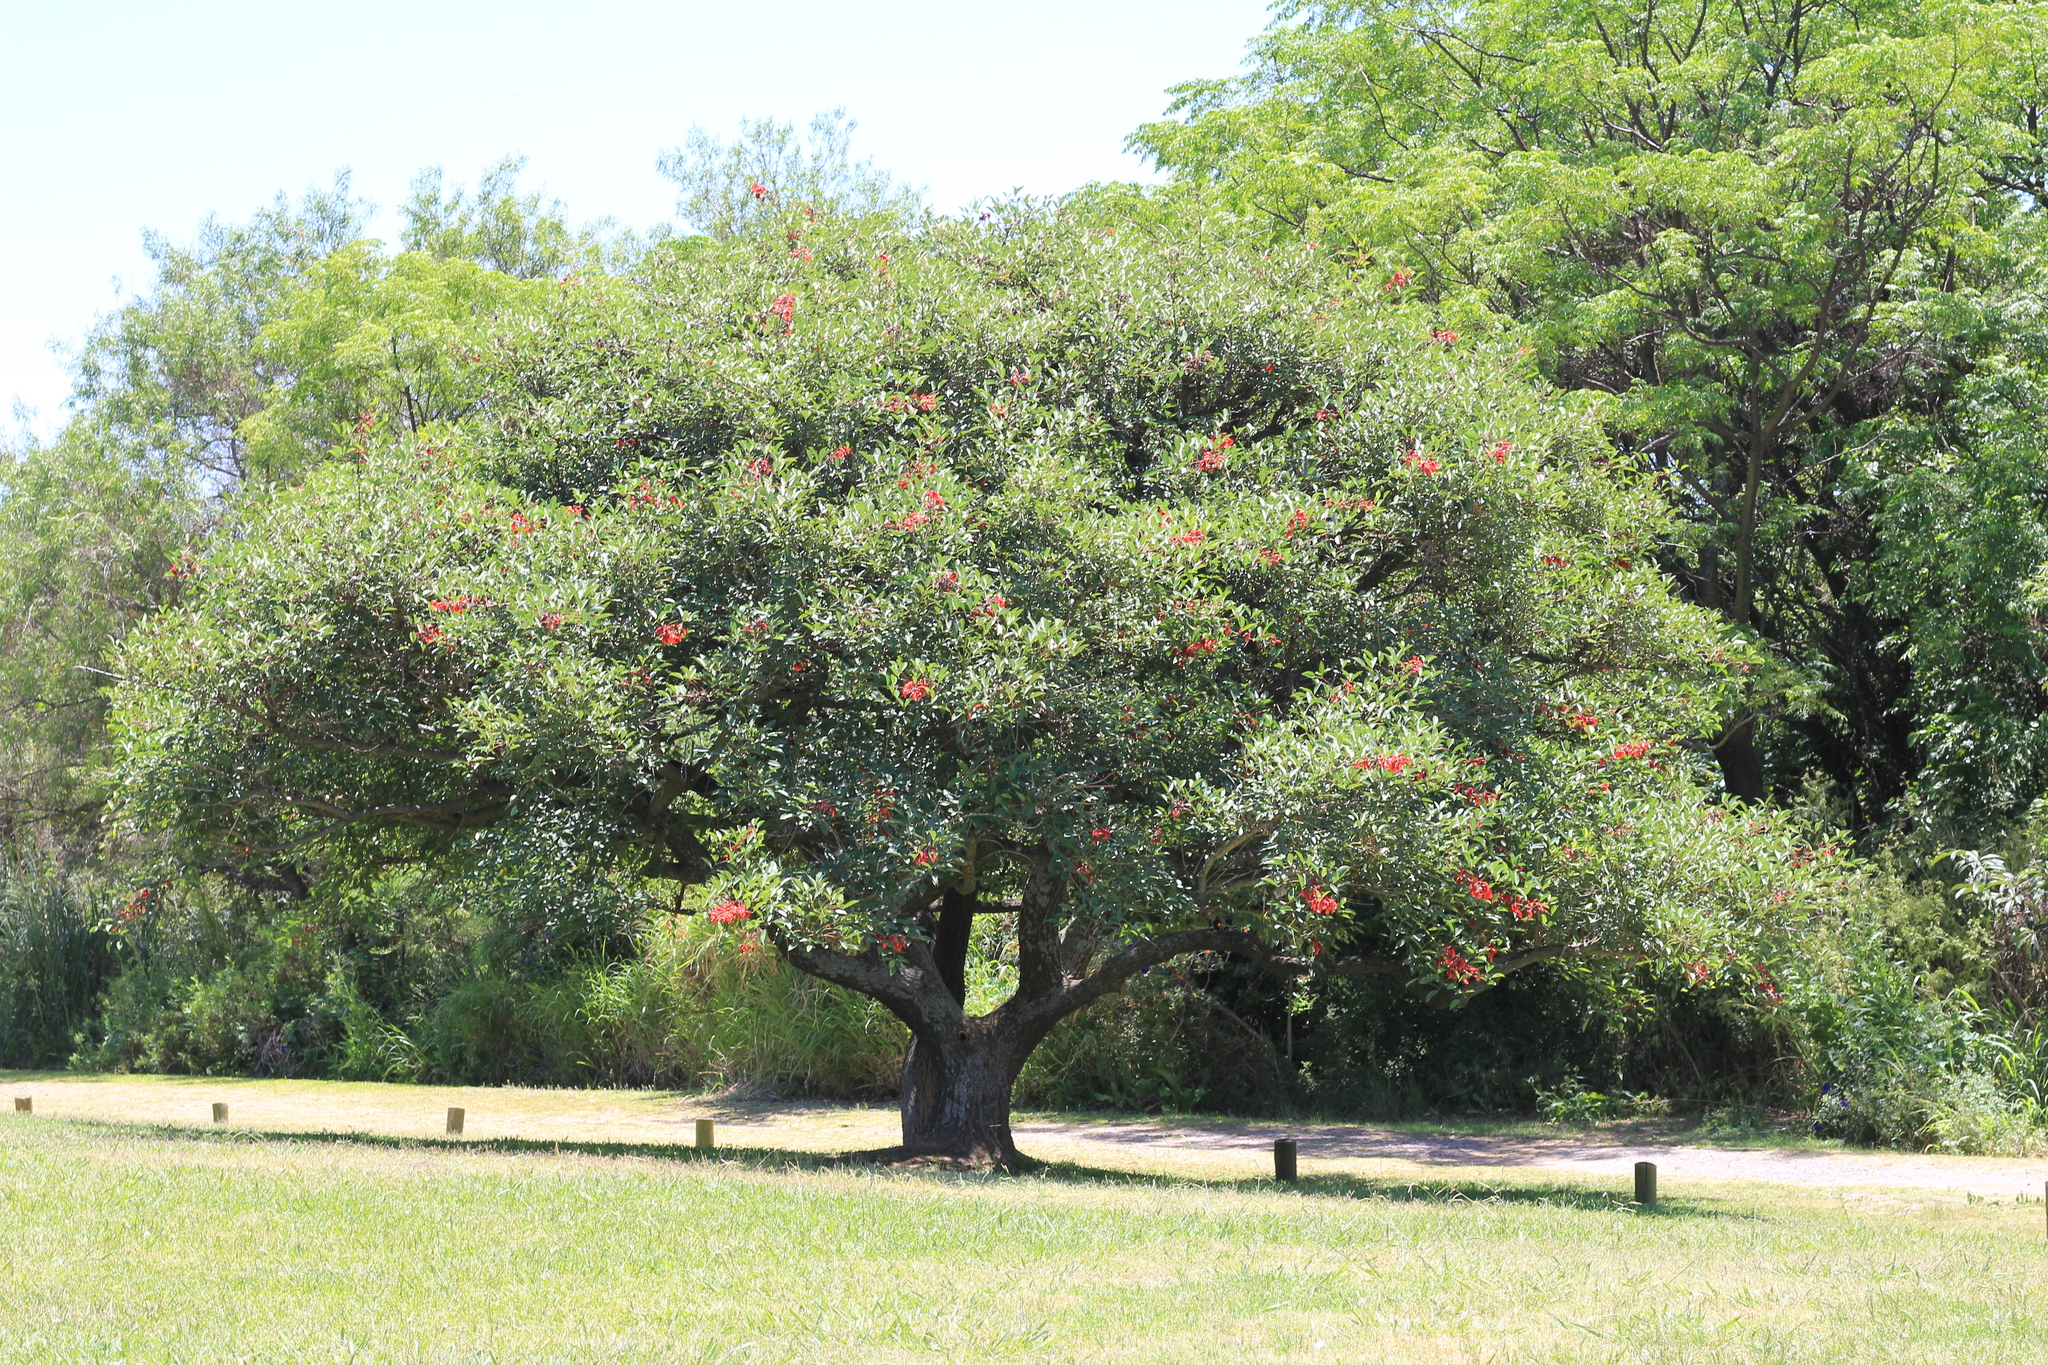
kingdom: Plantae
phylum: Tracheophyta
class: Magnoliopsida
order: Fabales
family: Fabaceae
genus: Erythrina
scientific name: Erythrina crista-galli
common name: Cockspur coral tree
